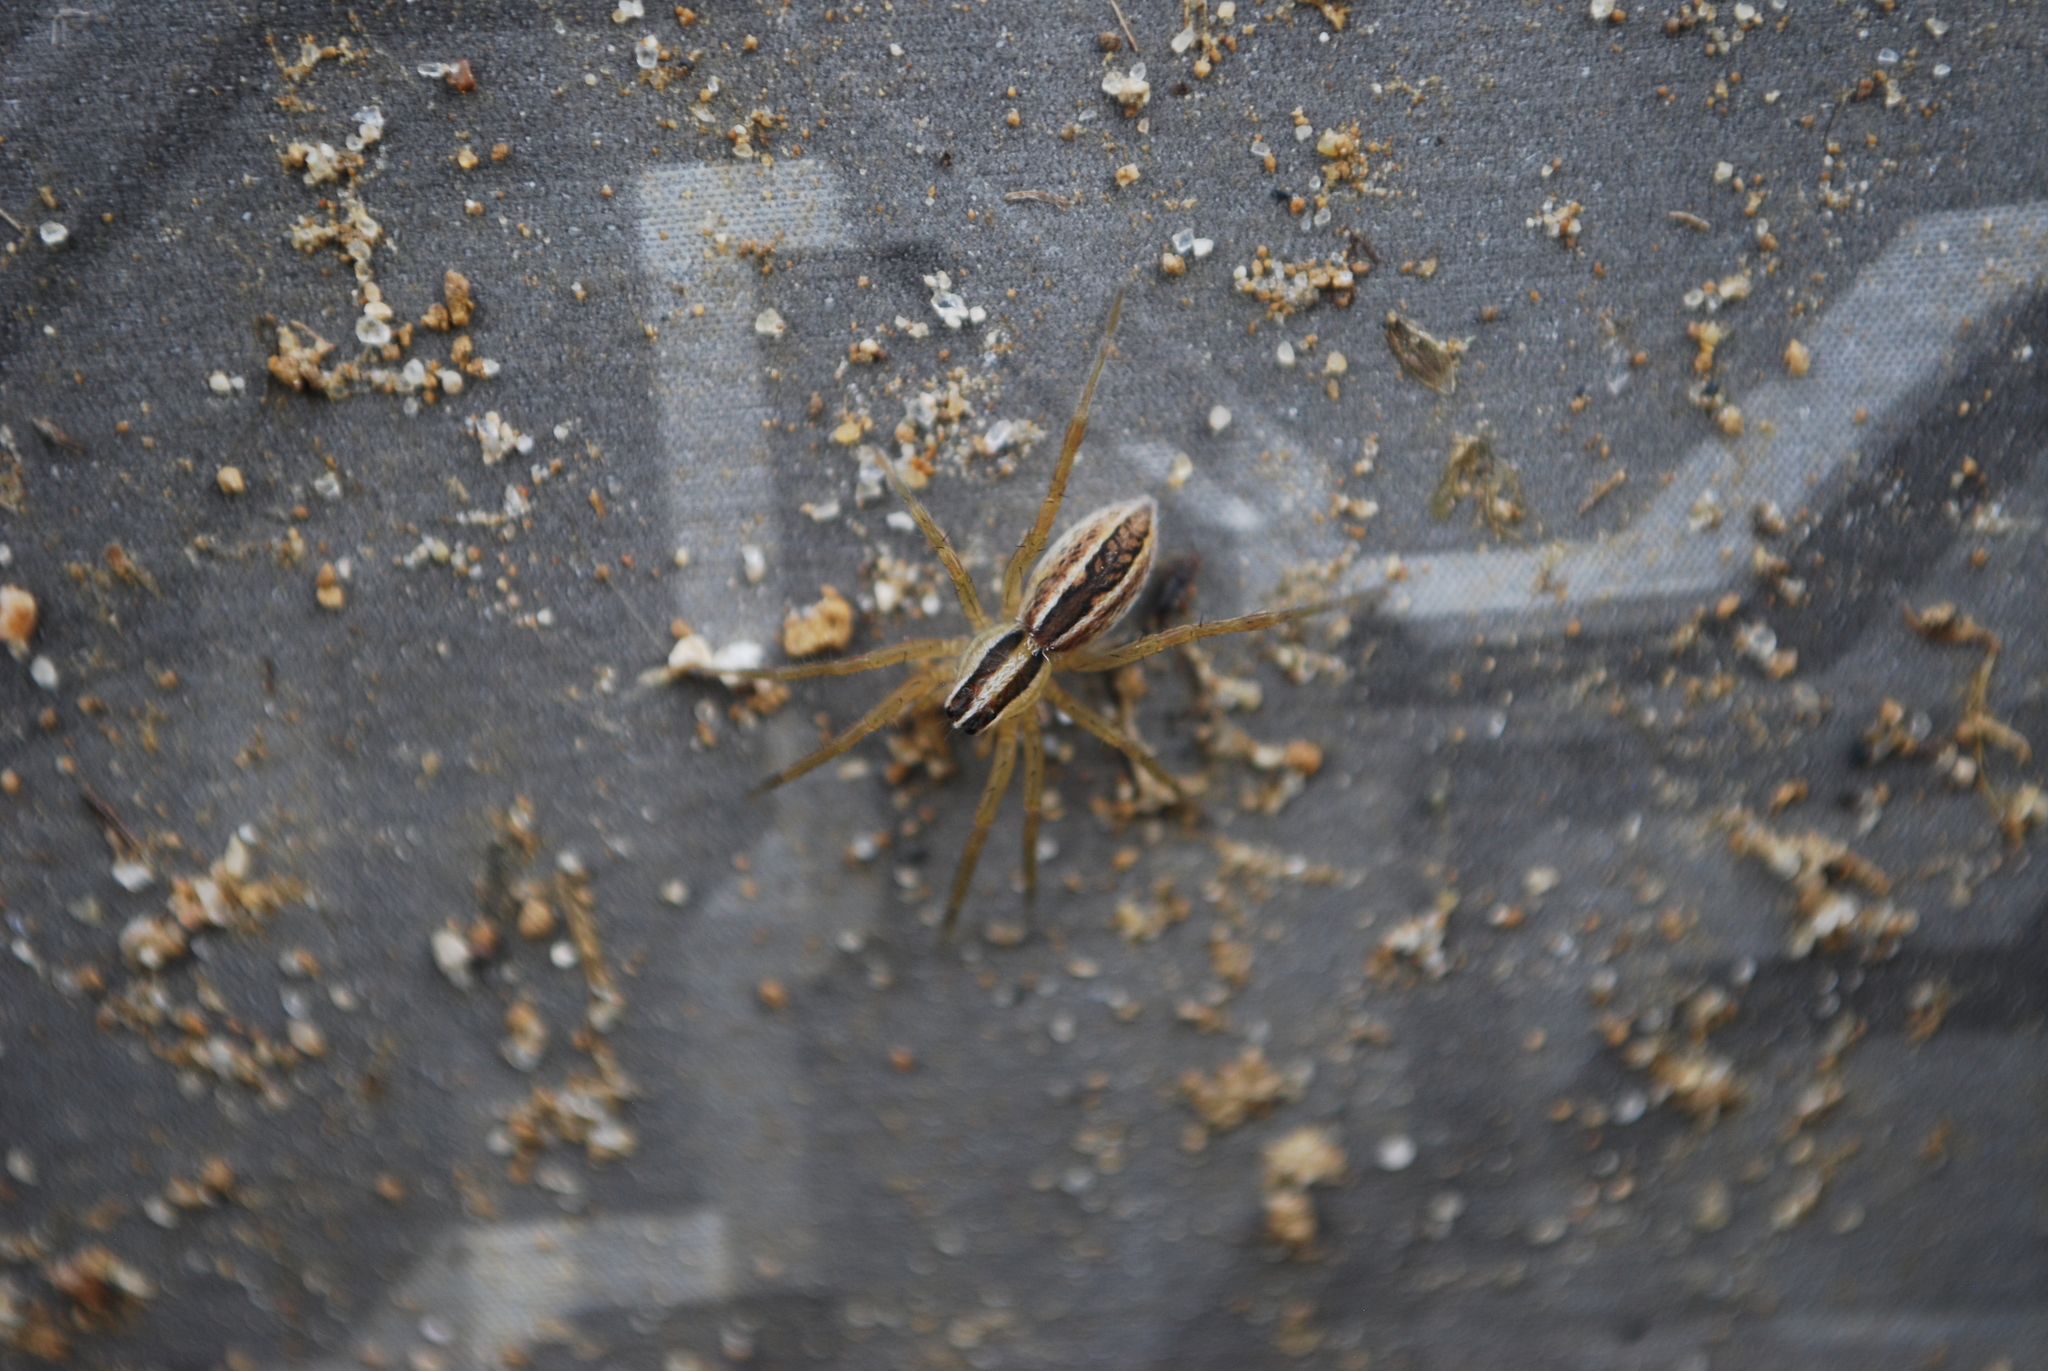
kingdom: Animalia
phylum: Arthropoda
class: Arachnida
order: Araneae
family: Lycosidae
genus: Rabidosa
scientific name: Rabidosa rabida
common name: Rabid wolf spider
